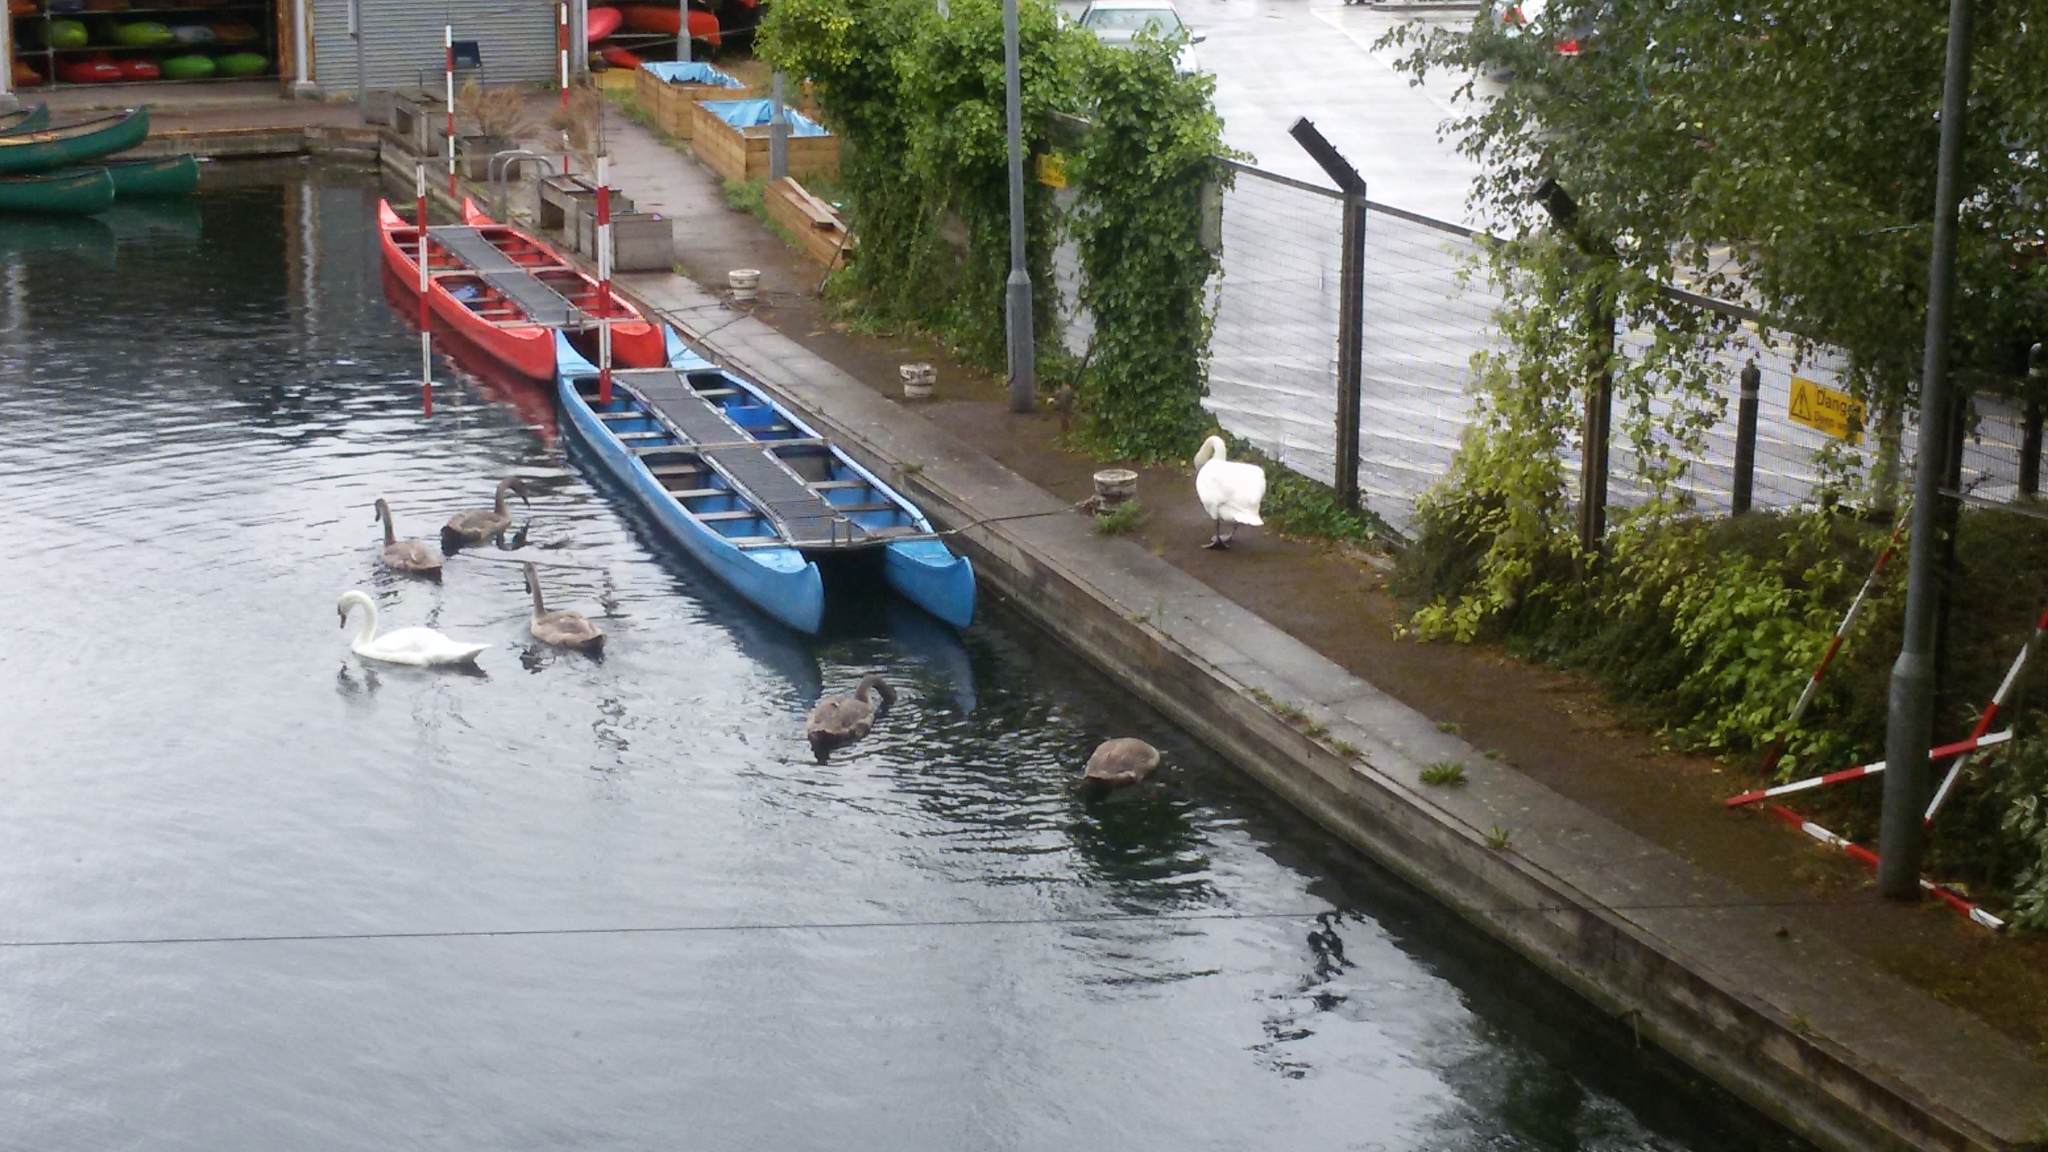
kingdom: Animalia
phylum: Chordata
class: Aves
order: Anseriformes
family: Anatidae
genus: Cygnus
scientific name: Cygnus olor
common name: Mute swan
